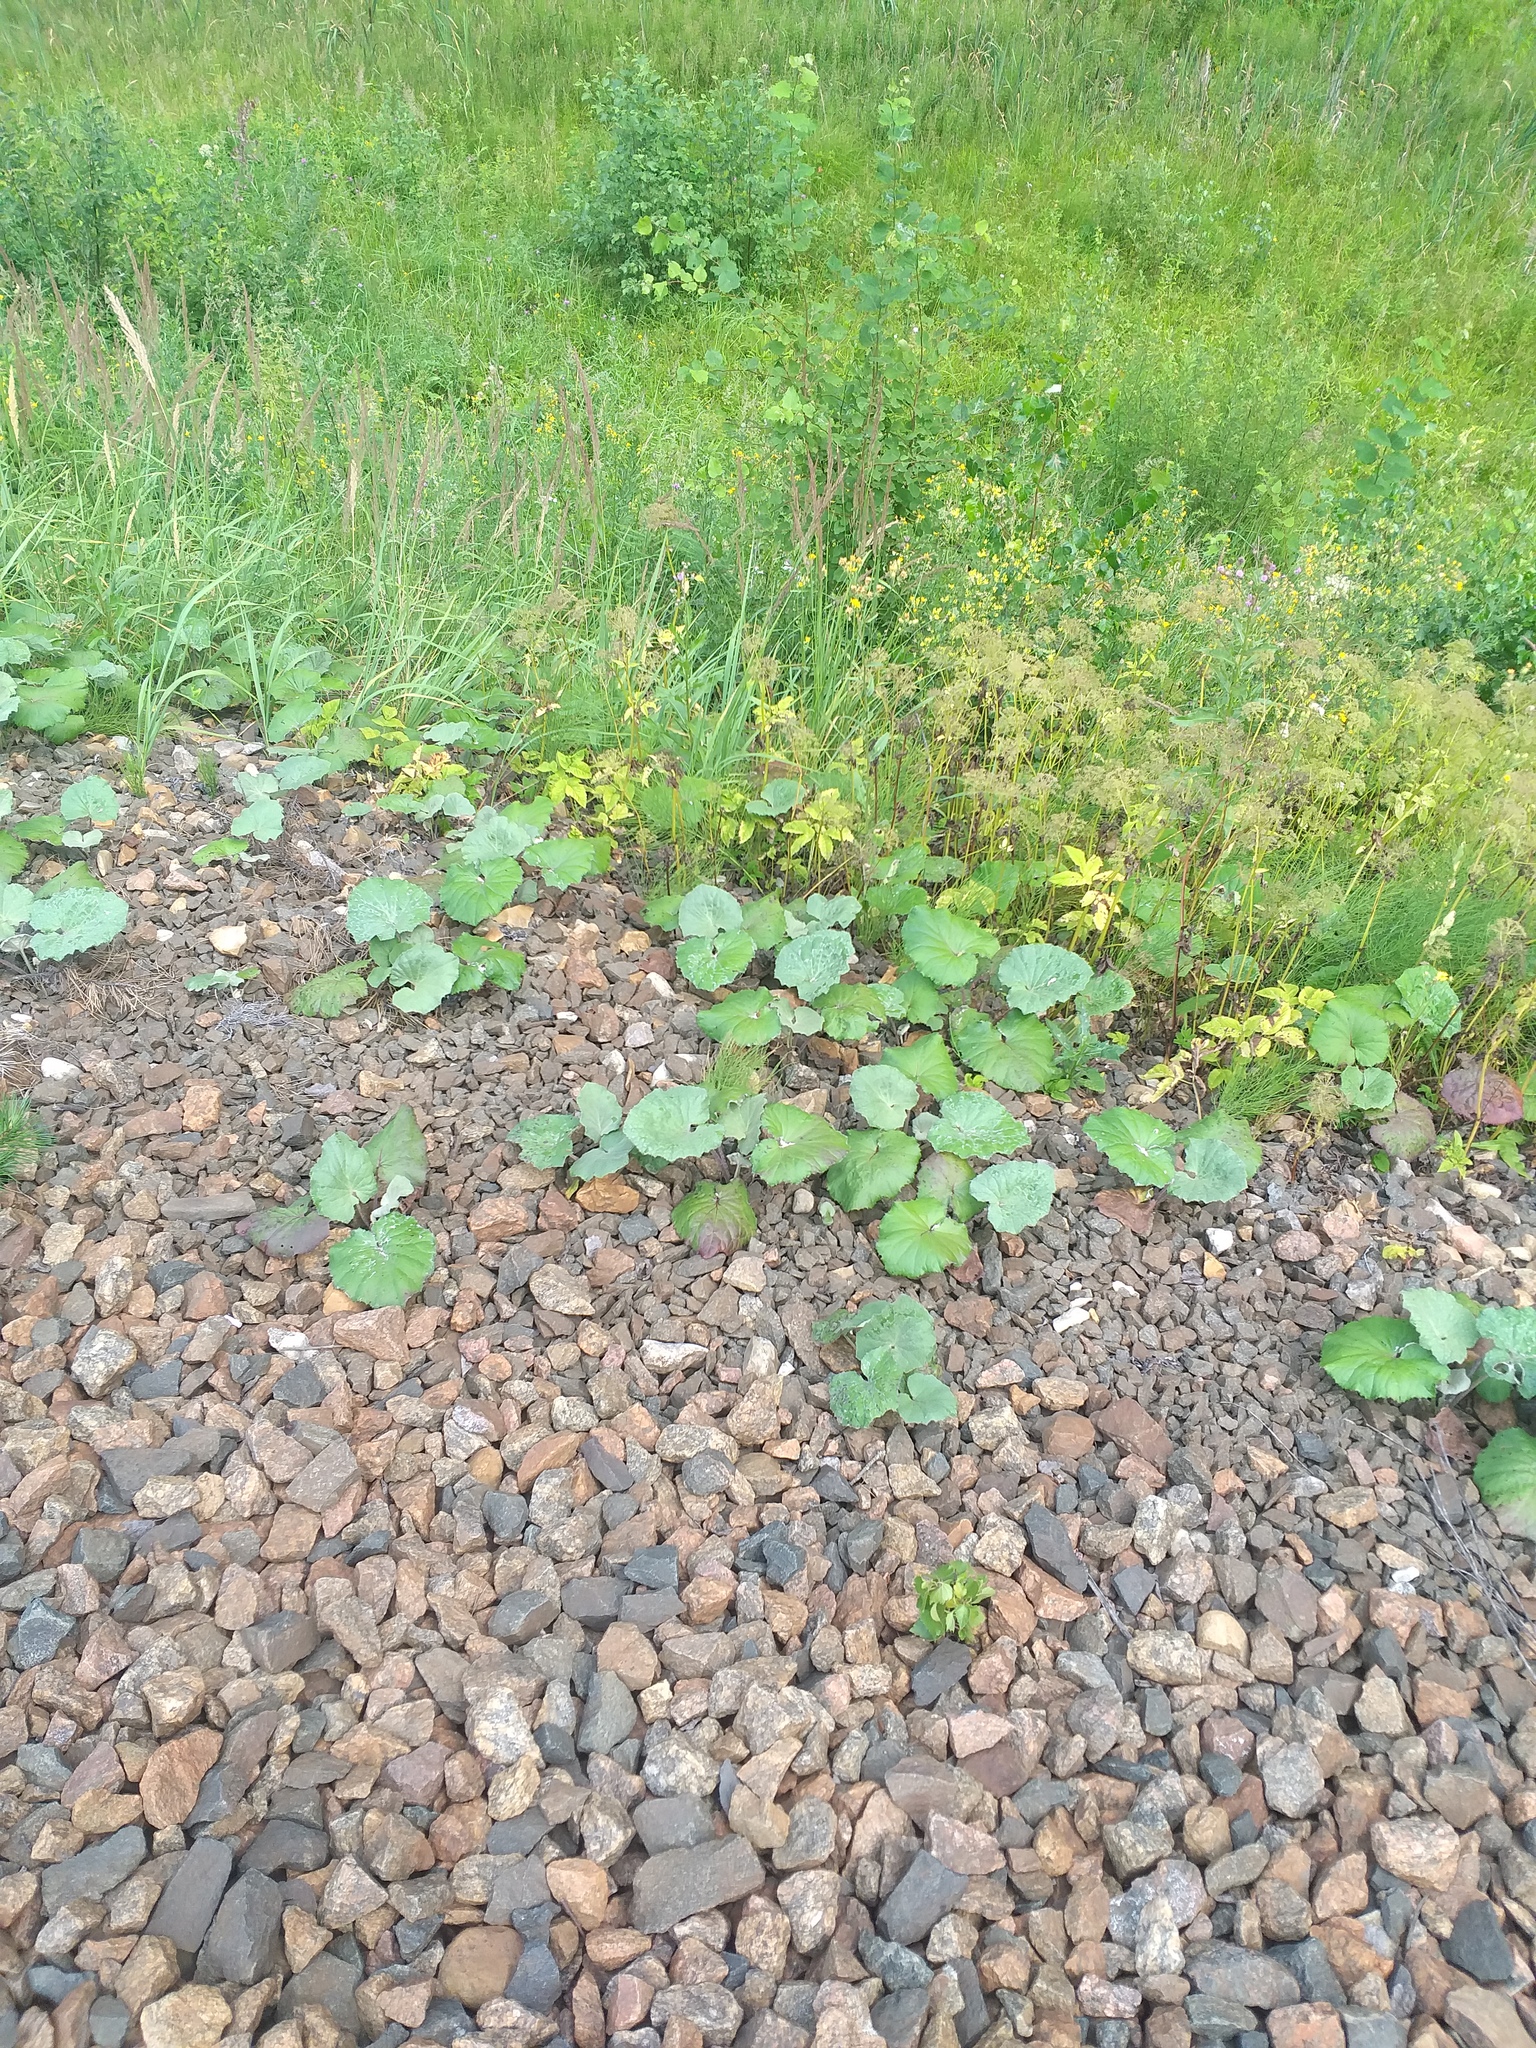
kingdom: Plantae
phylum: Tracheophyta
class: Magnoliopsida
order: Asterales
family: Asteraceae
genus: Tussilago
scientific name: Tussilago farfara
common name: Coltsfoot
